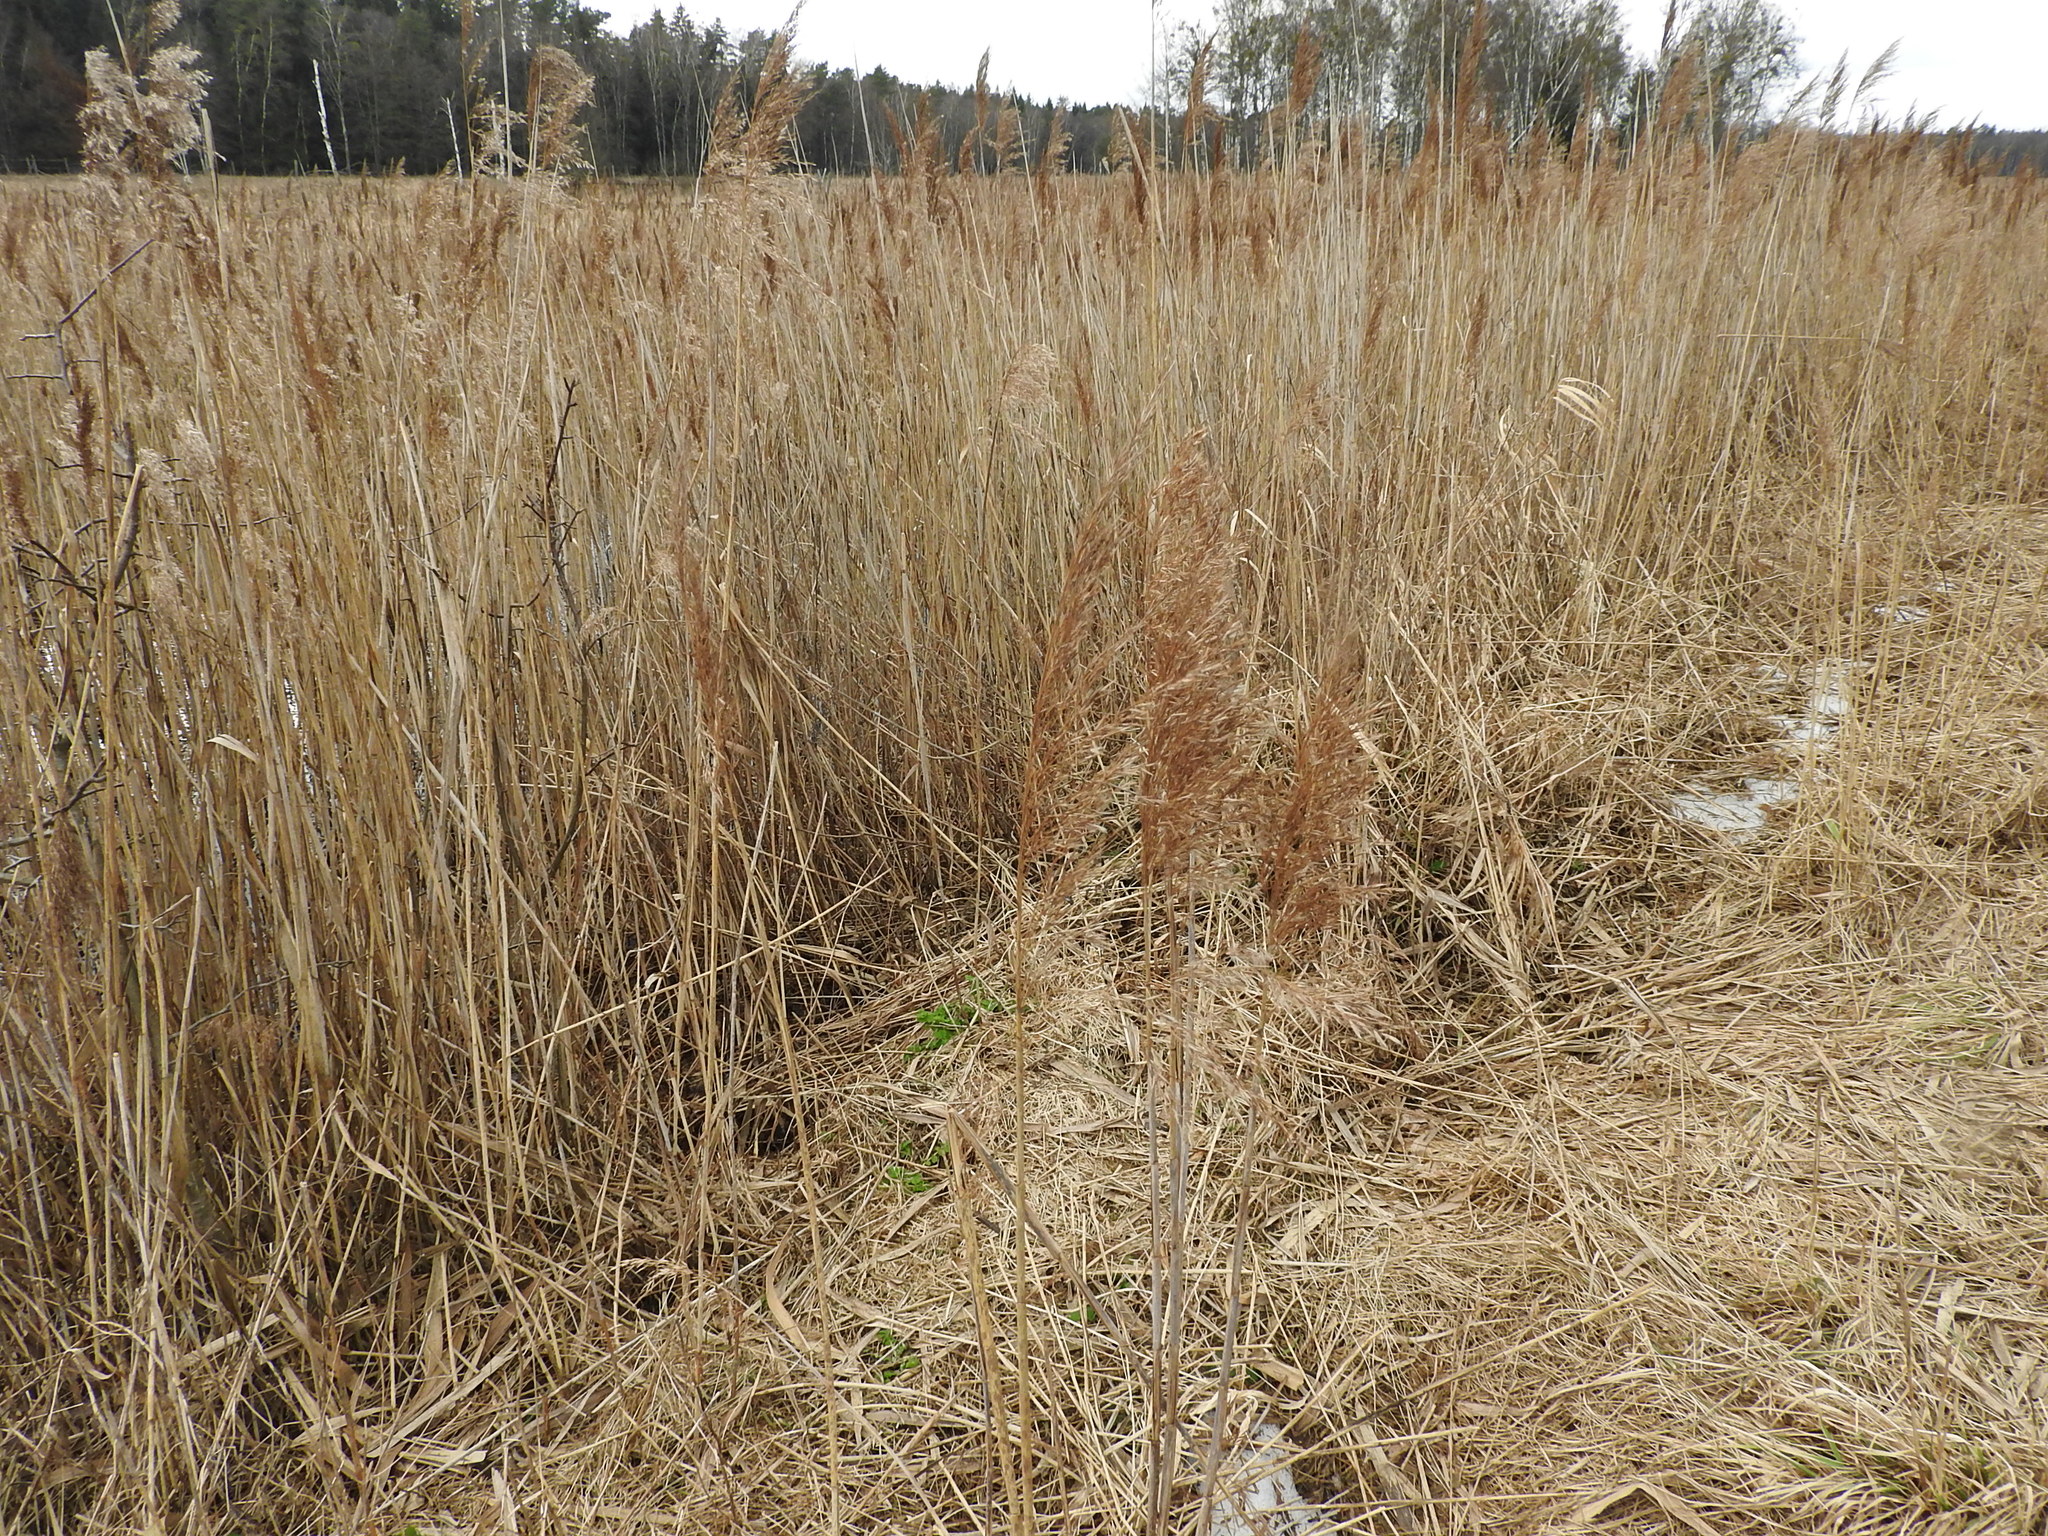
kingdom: Plantae
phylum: Tracheophyta
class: Liliopsida
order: Poales
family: Poaceae
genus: Phragmites
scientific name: Phragmites australis
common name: Common reed
